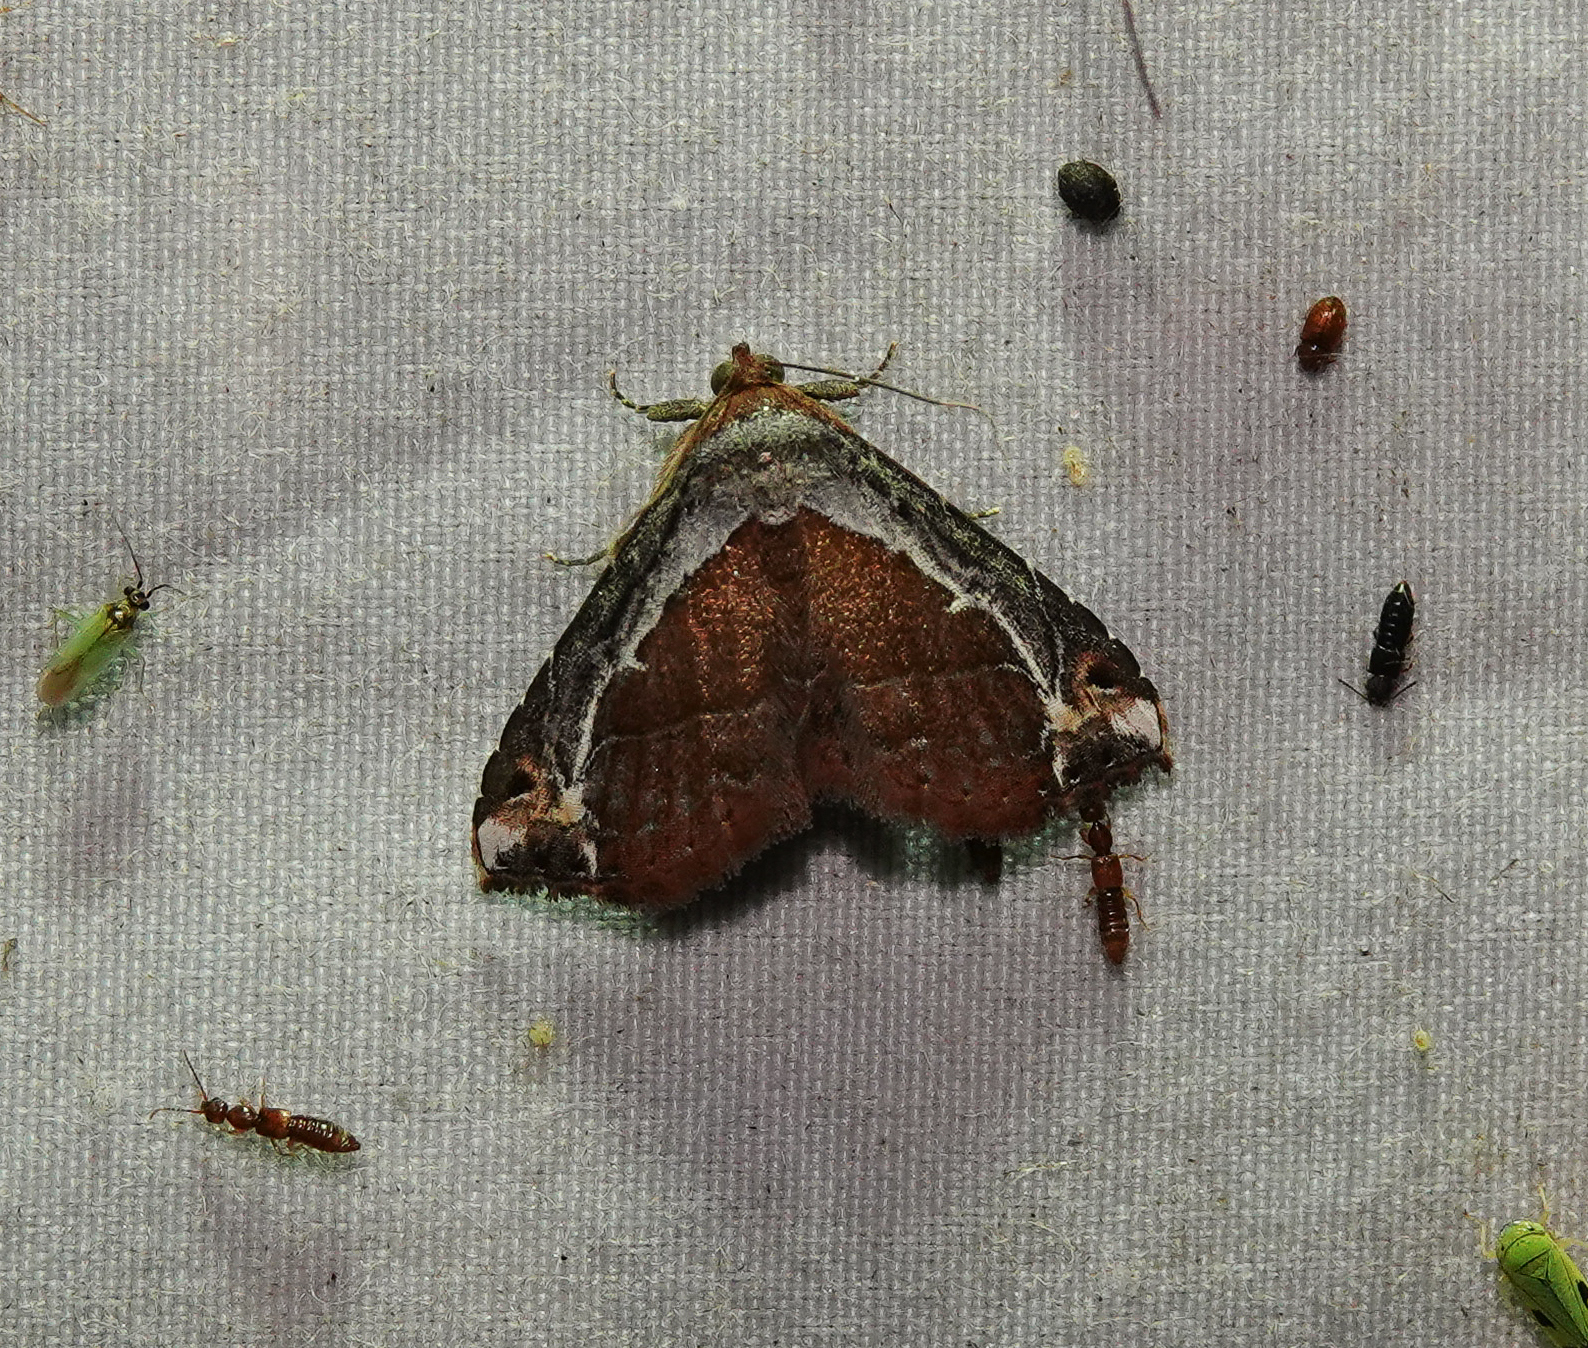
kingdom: Animalia
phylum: Arthropoda
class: Insecta
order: Lepidoptera
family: Erebidae
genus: Zurobata
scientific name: Zurobata vacillans
